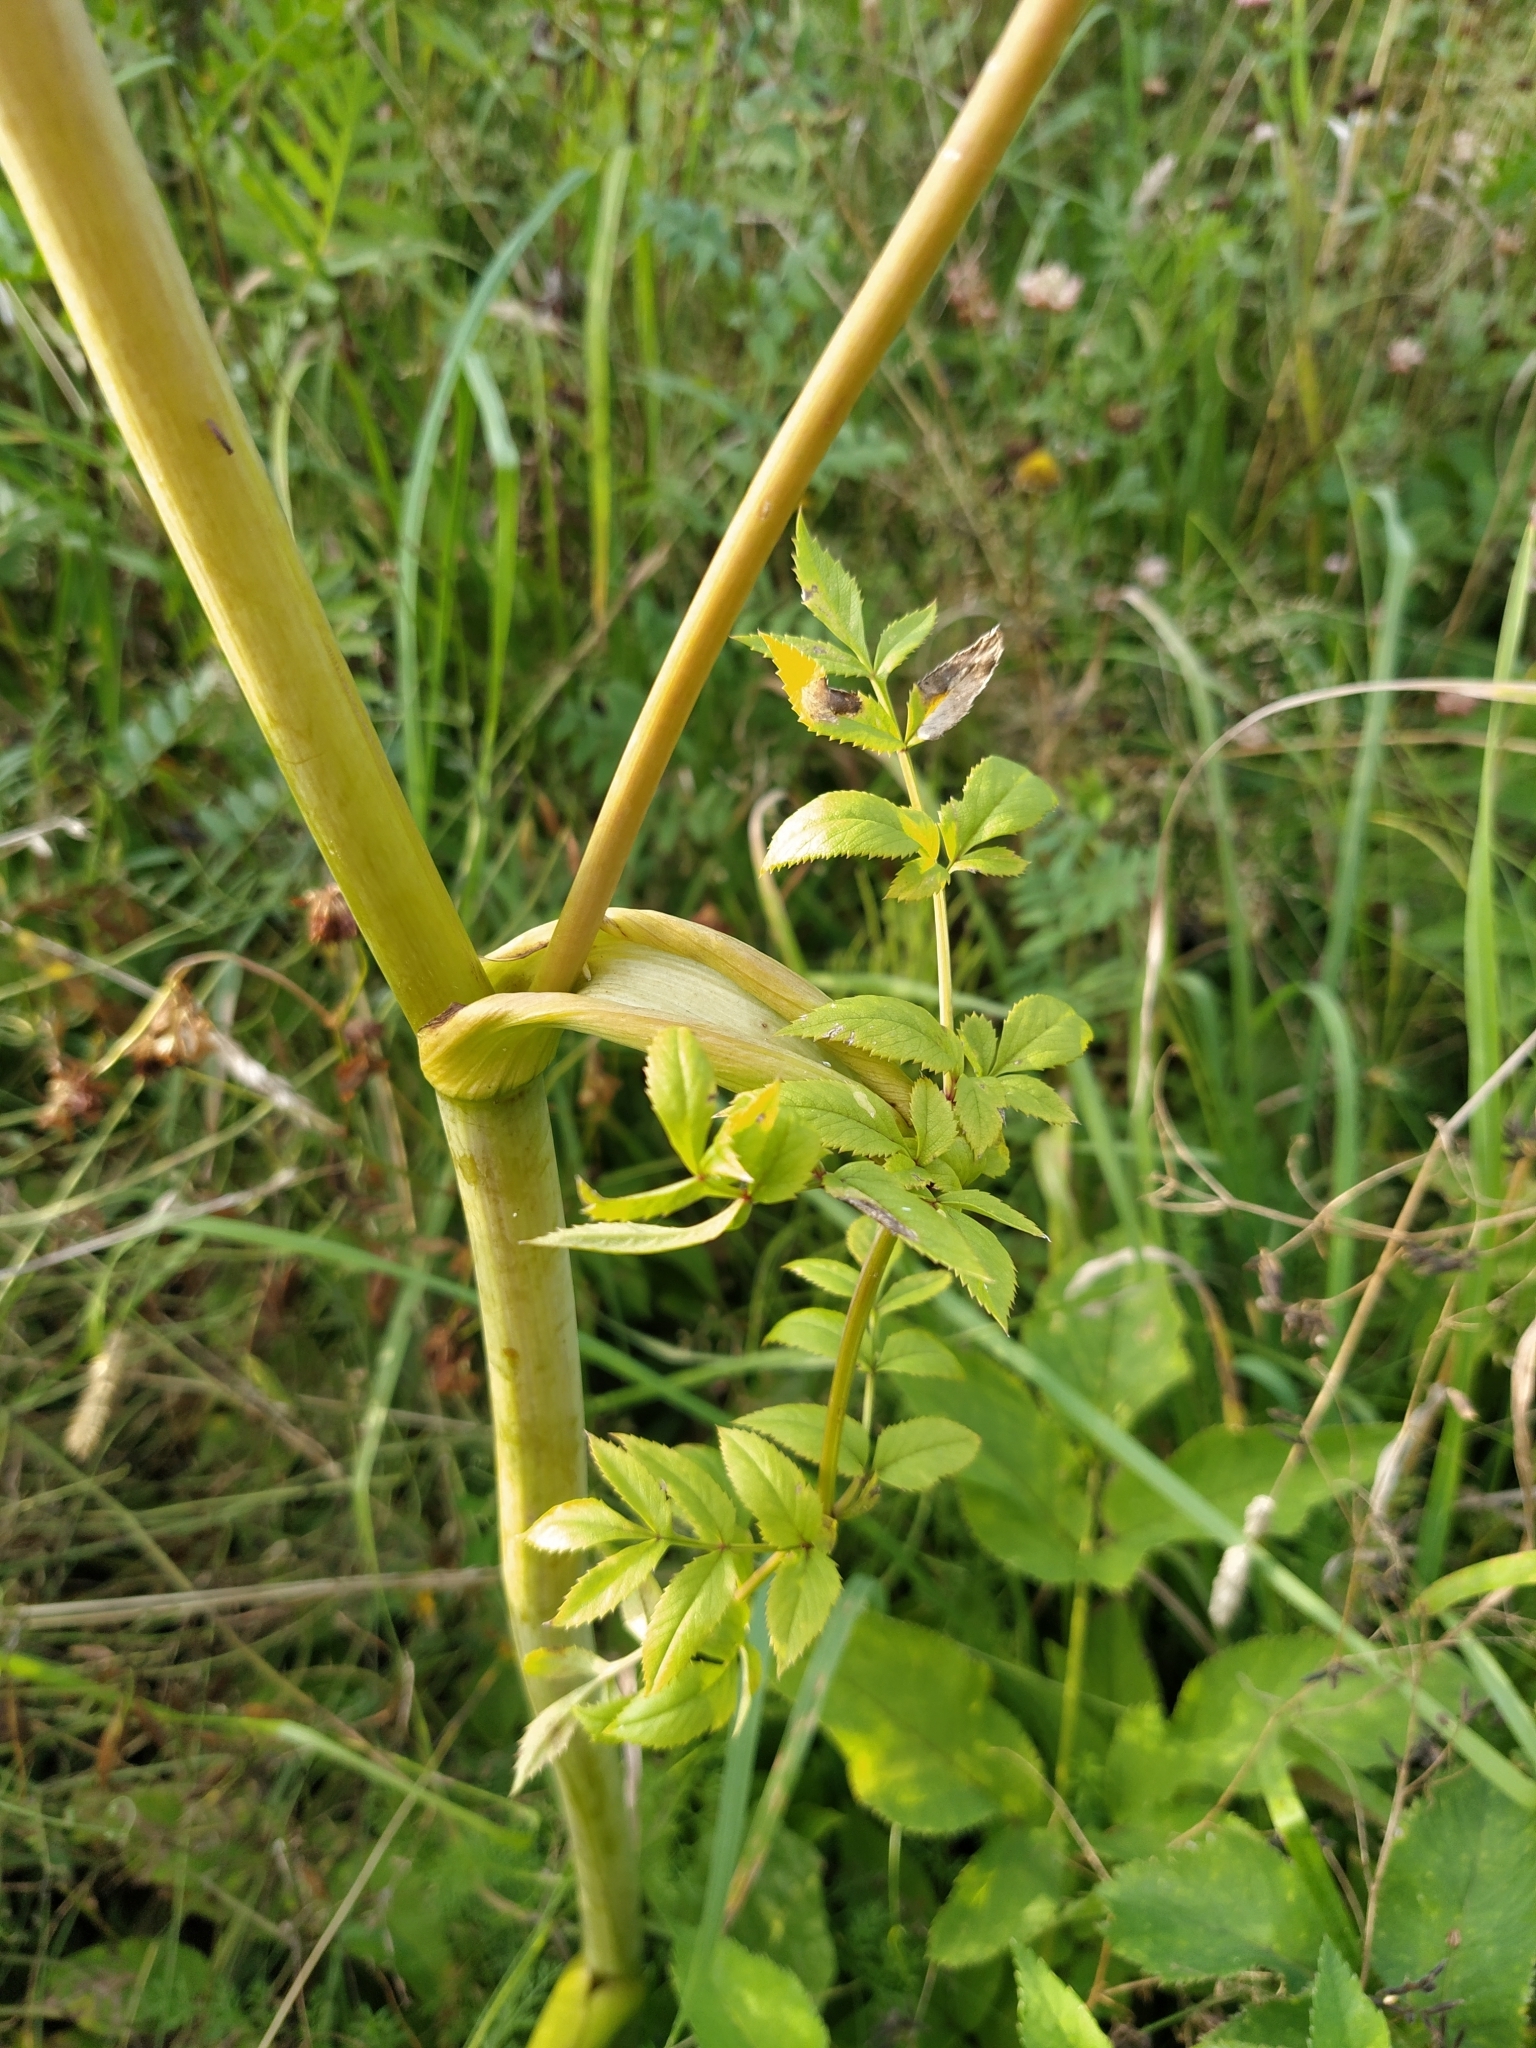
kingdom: Plantae
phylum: Tracheophyta
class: Magnoliopsida
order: Apiales
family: Apiaceae
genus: Angelica
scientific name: Angelica sylvestris
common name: Wild angelica
